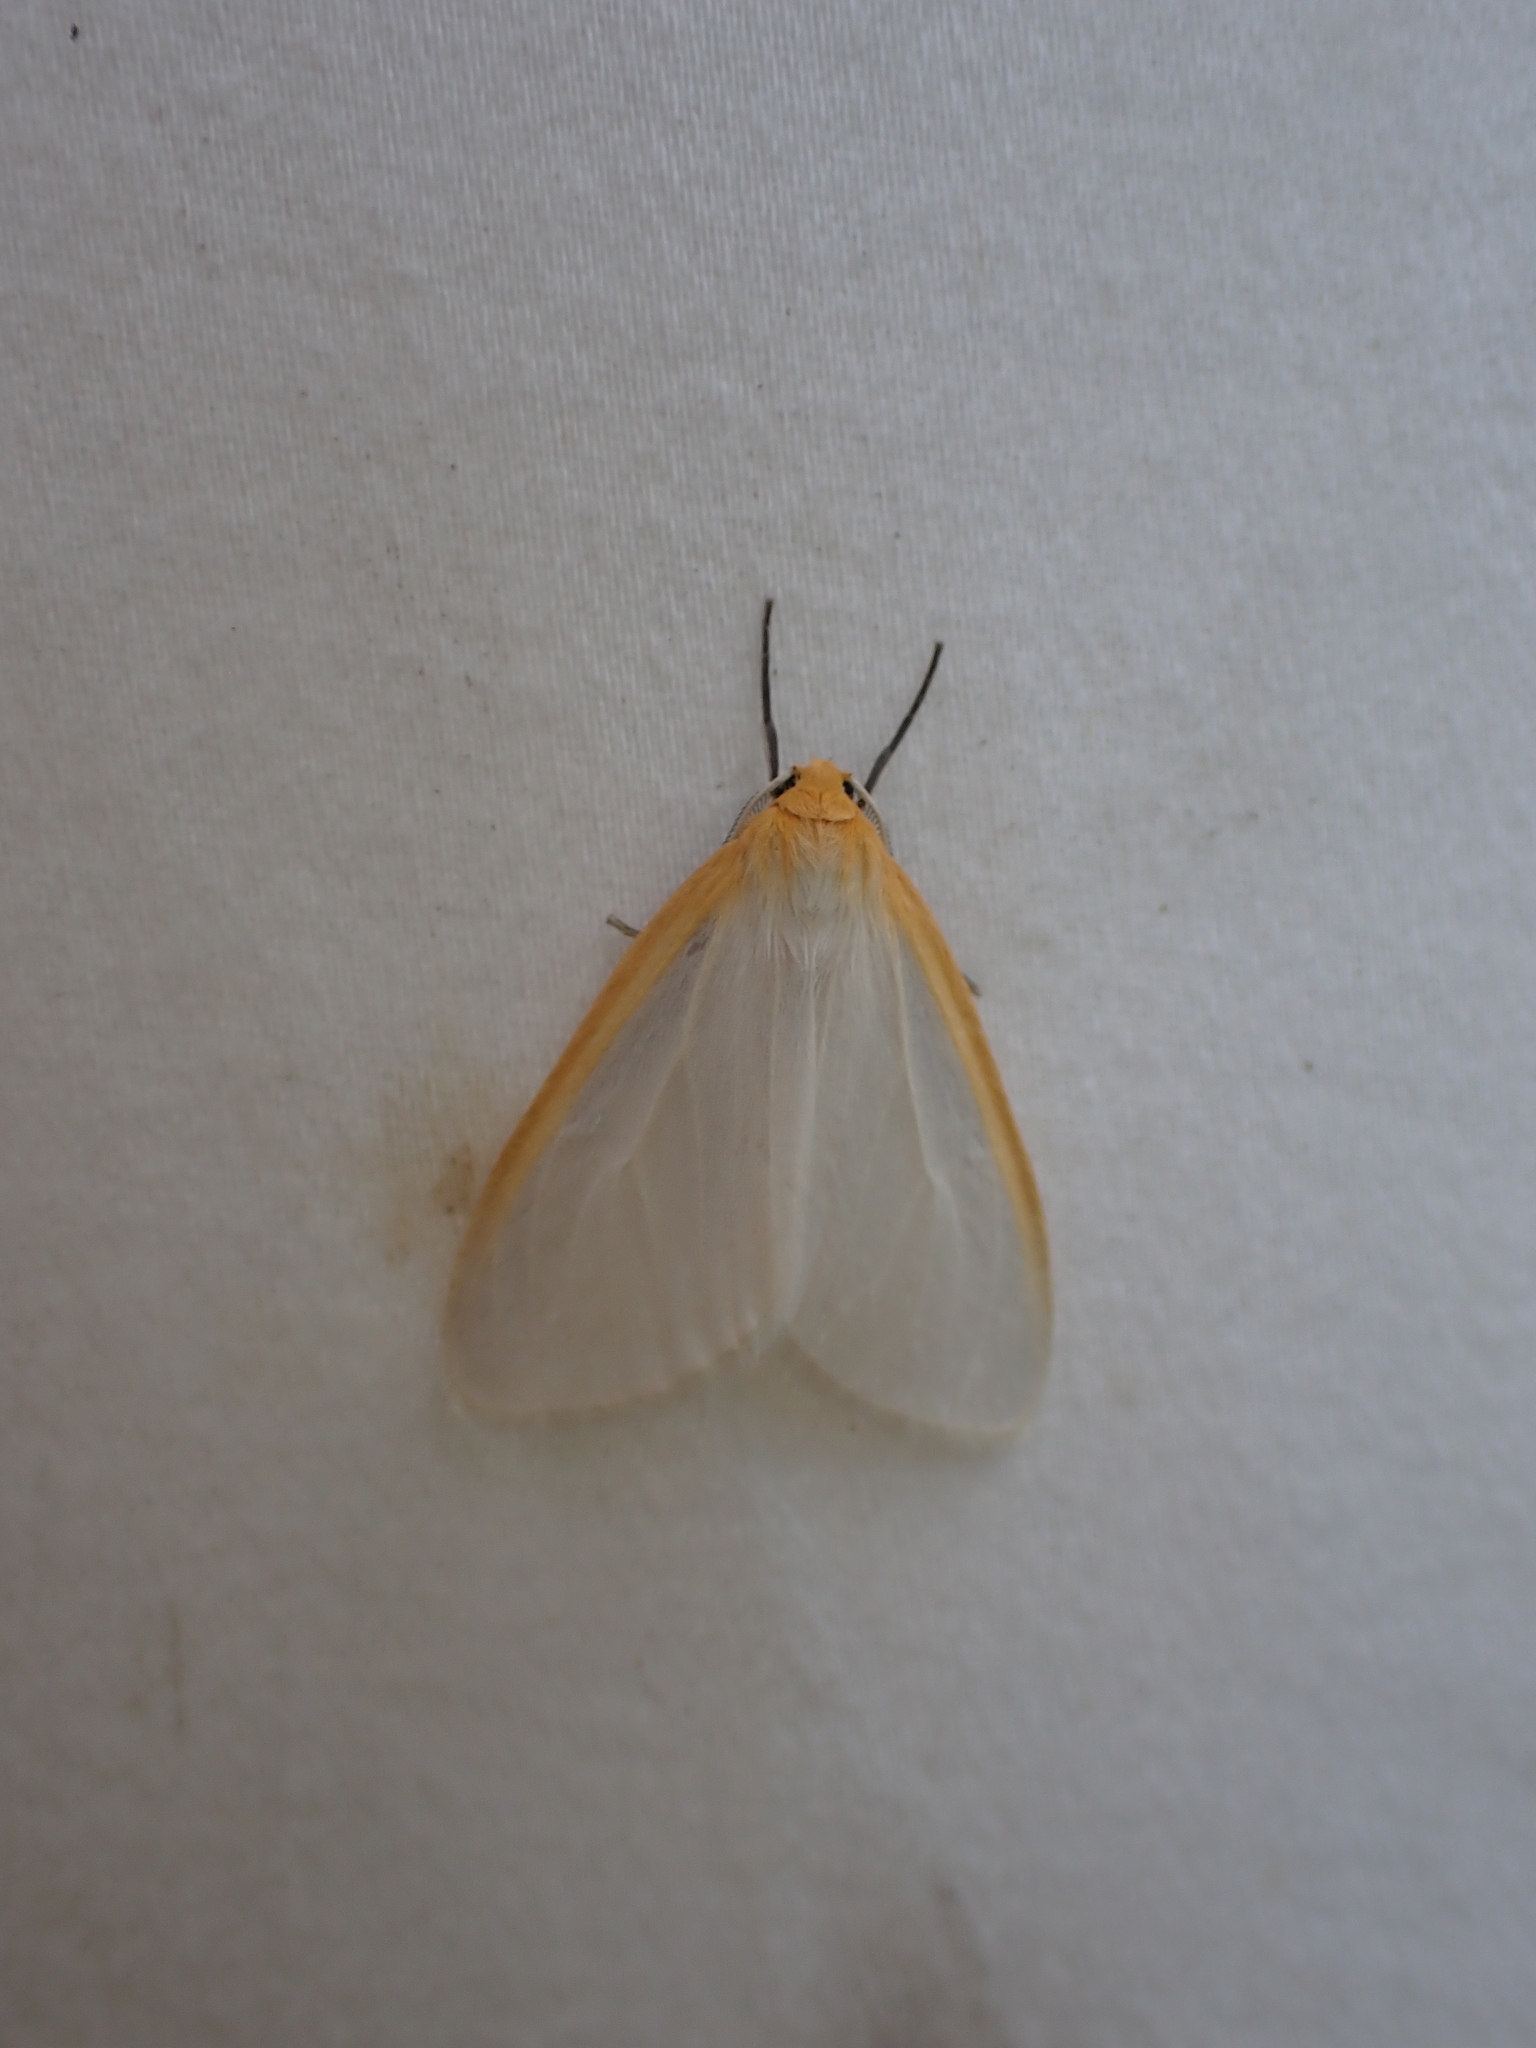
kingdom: Animalia
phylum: Arthropoda
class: Insecta
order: Lepidoptera
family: Erebidae
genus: Cycnia
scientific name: Cycnia tenera
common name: Delicate cycnia moth
